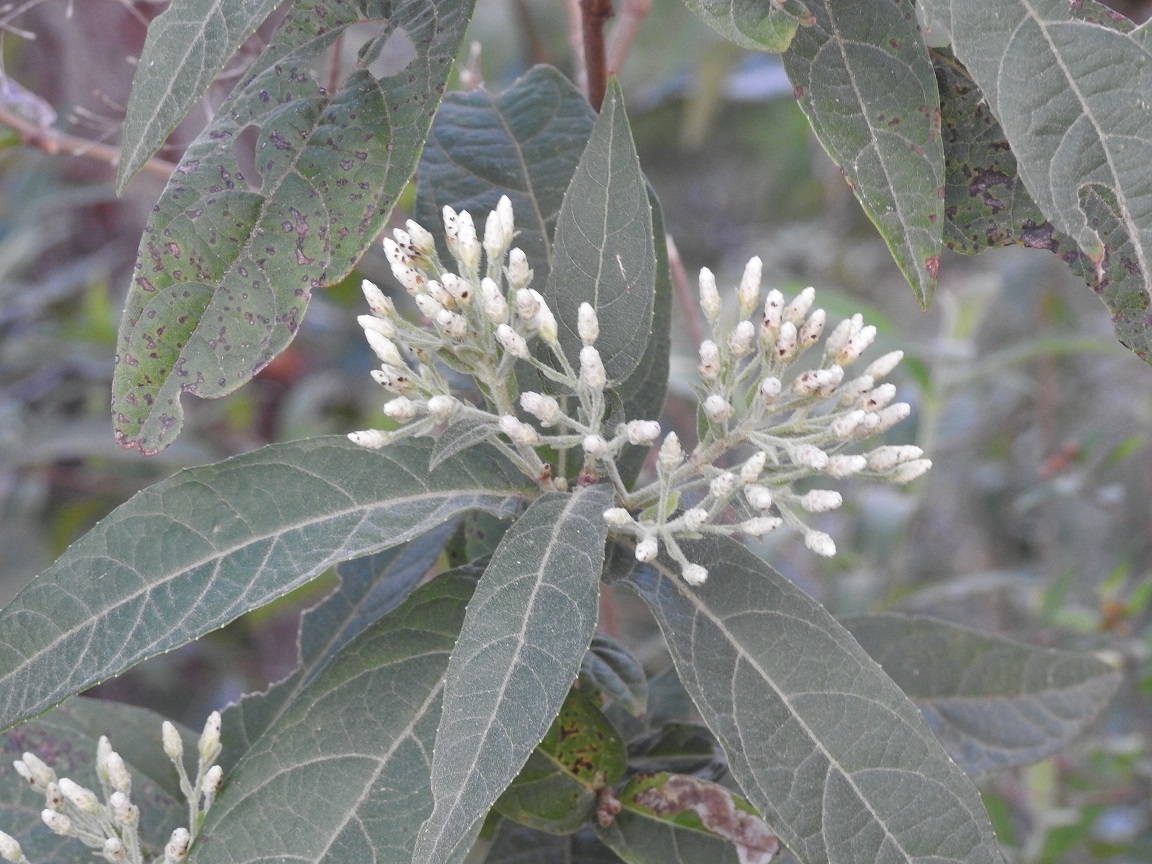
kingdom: Plantae
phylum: Tracheophyta
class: Magnoliopsida
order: Asterales
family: Asteraceae
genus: Chromolaena
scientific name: Chromolaena glaberrima
